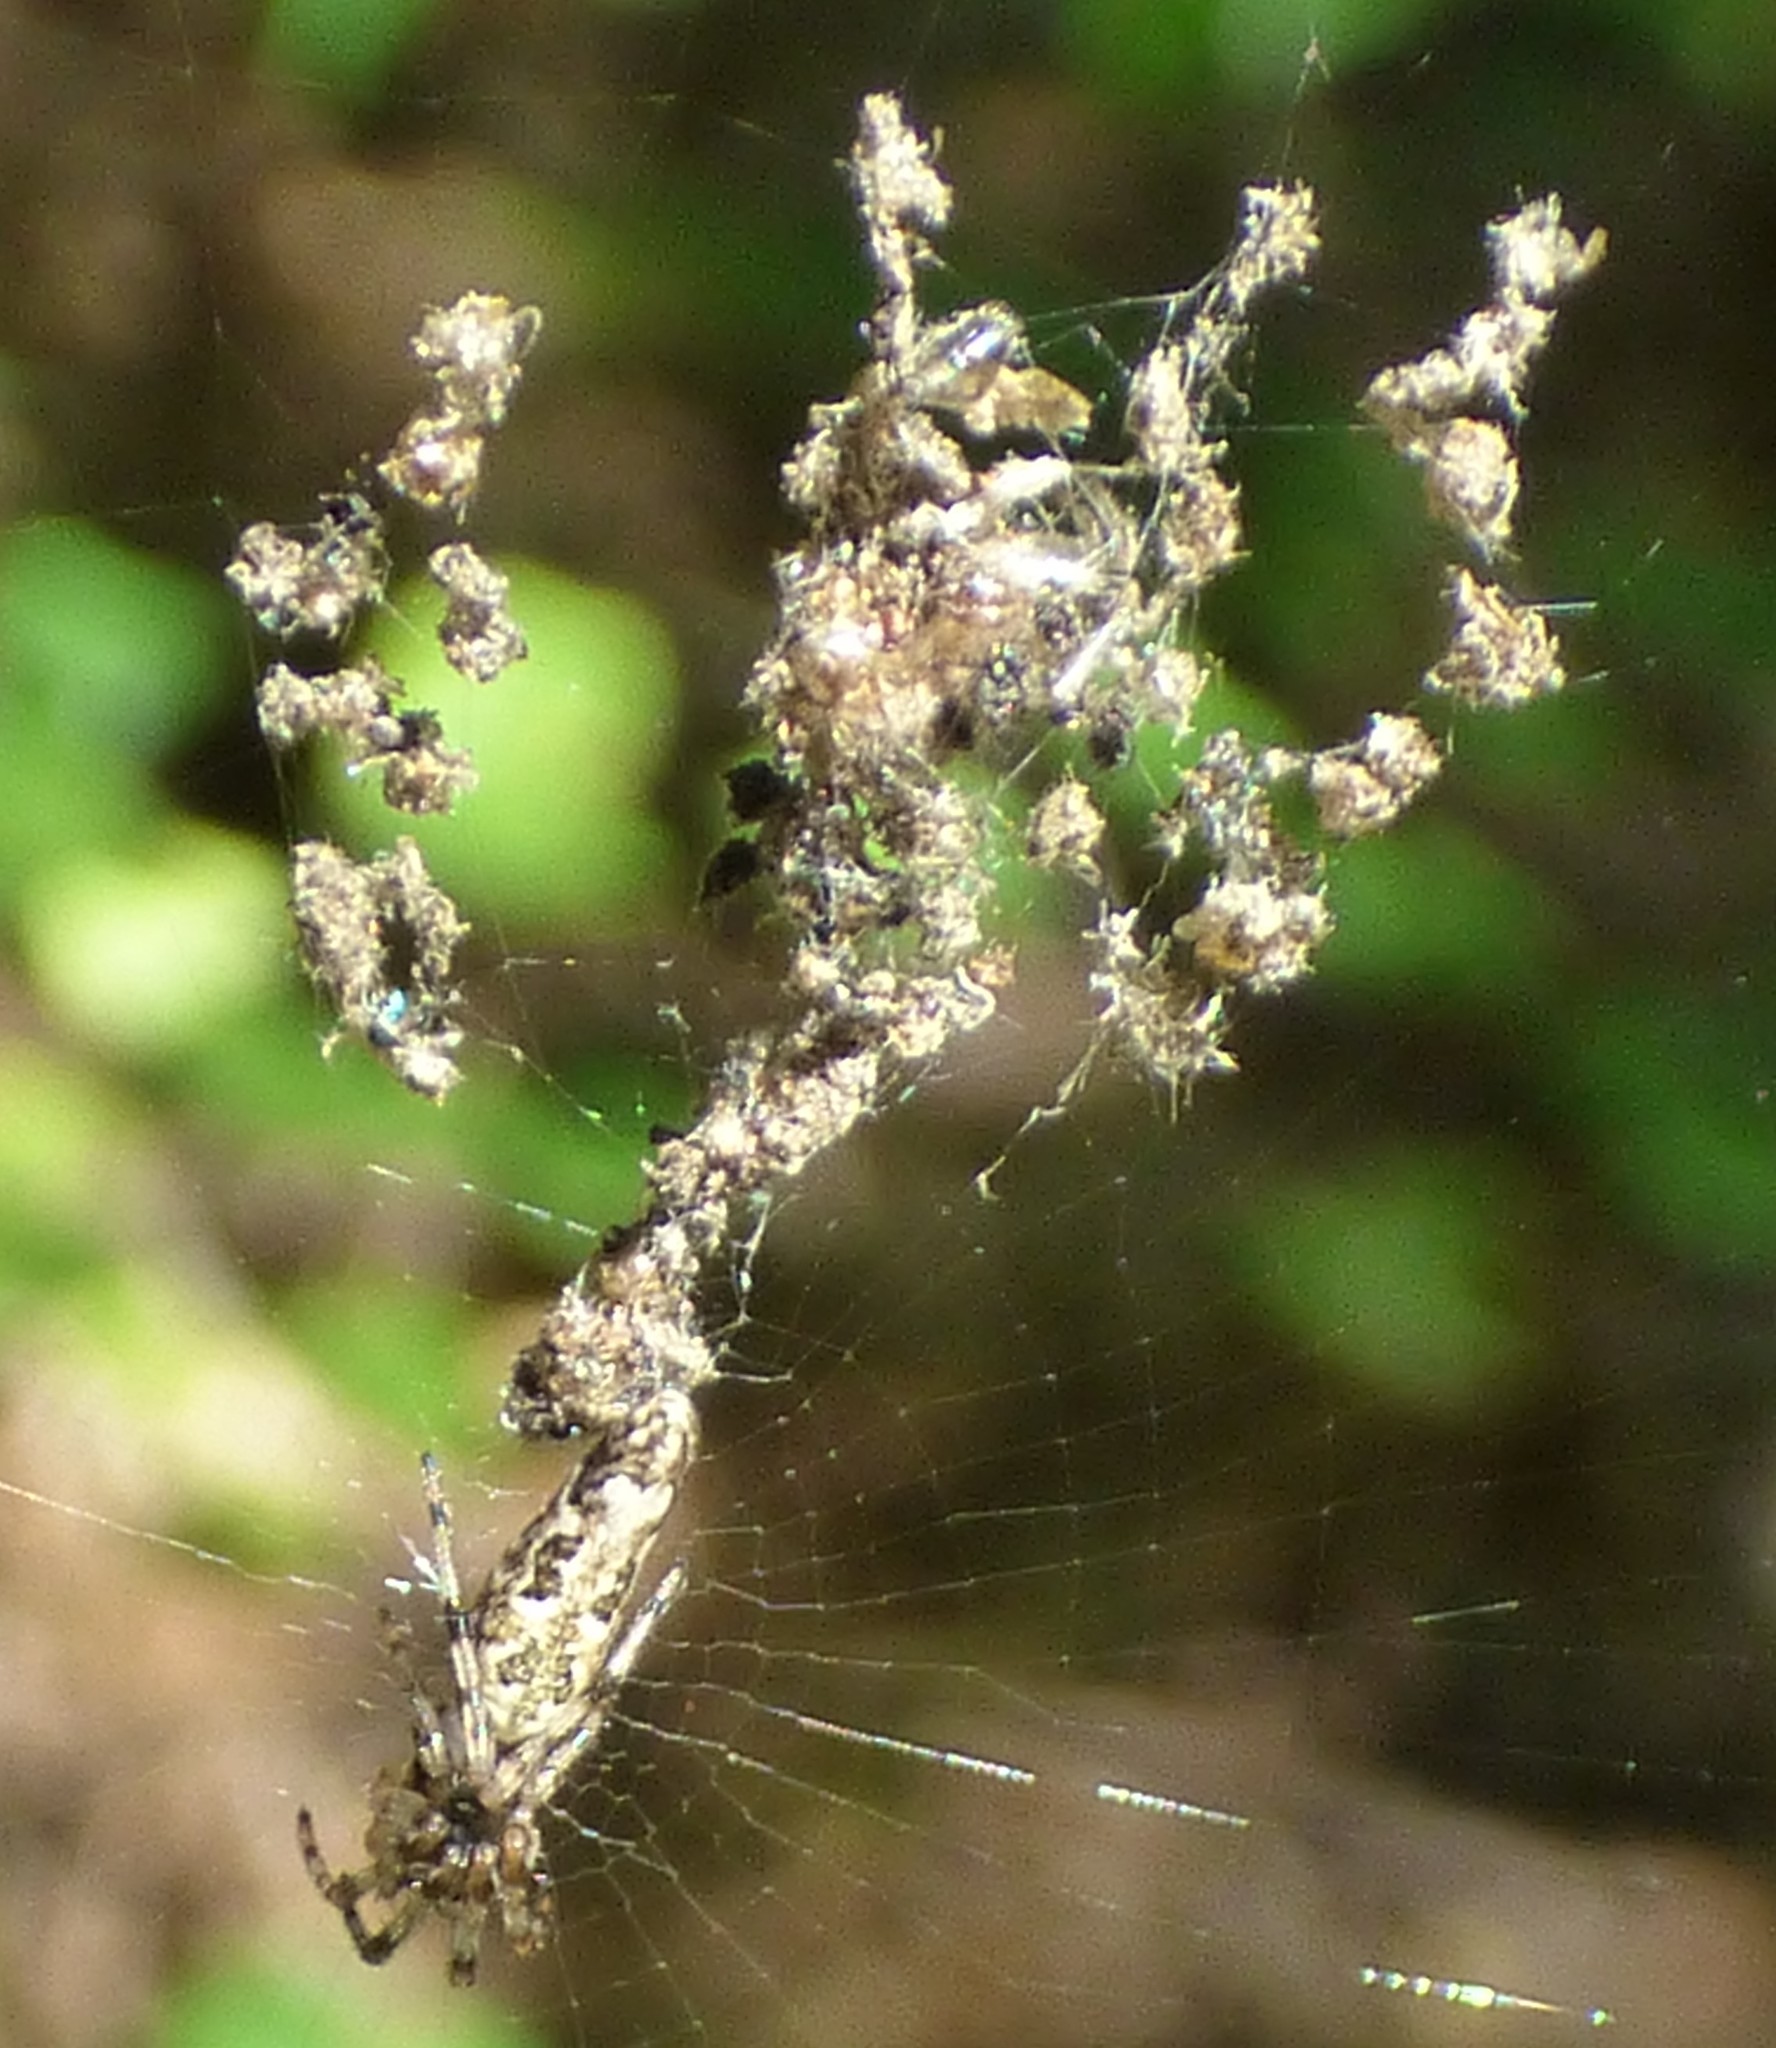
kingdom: Animalia
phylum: Arthropoda
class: Arachnida
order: Araneae
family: Araneidae
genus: Cyclosa
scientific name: Cyclosa caroli
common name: Orb weavers
